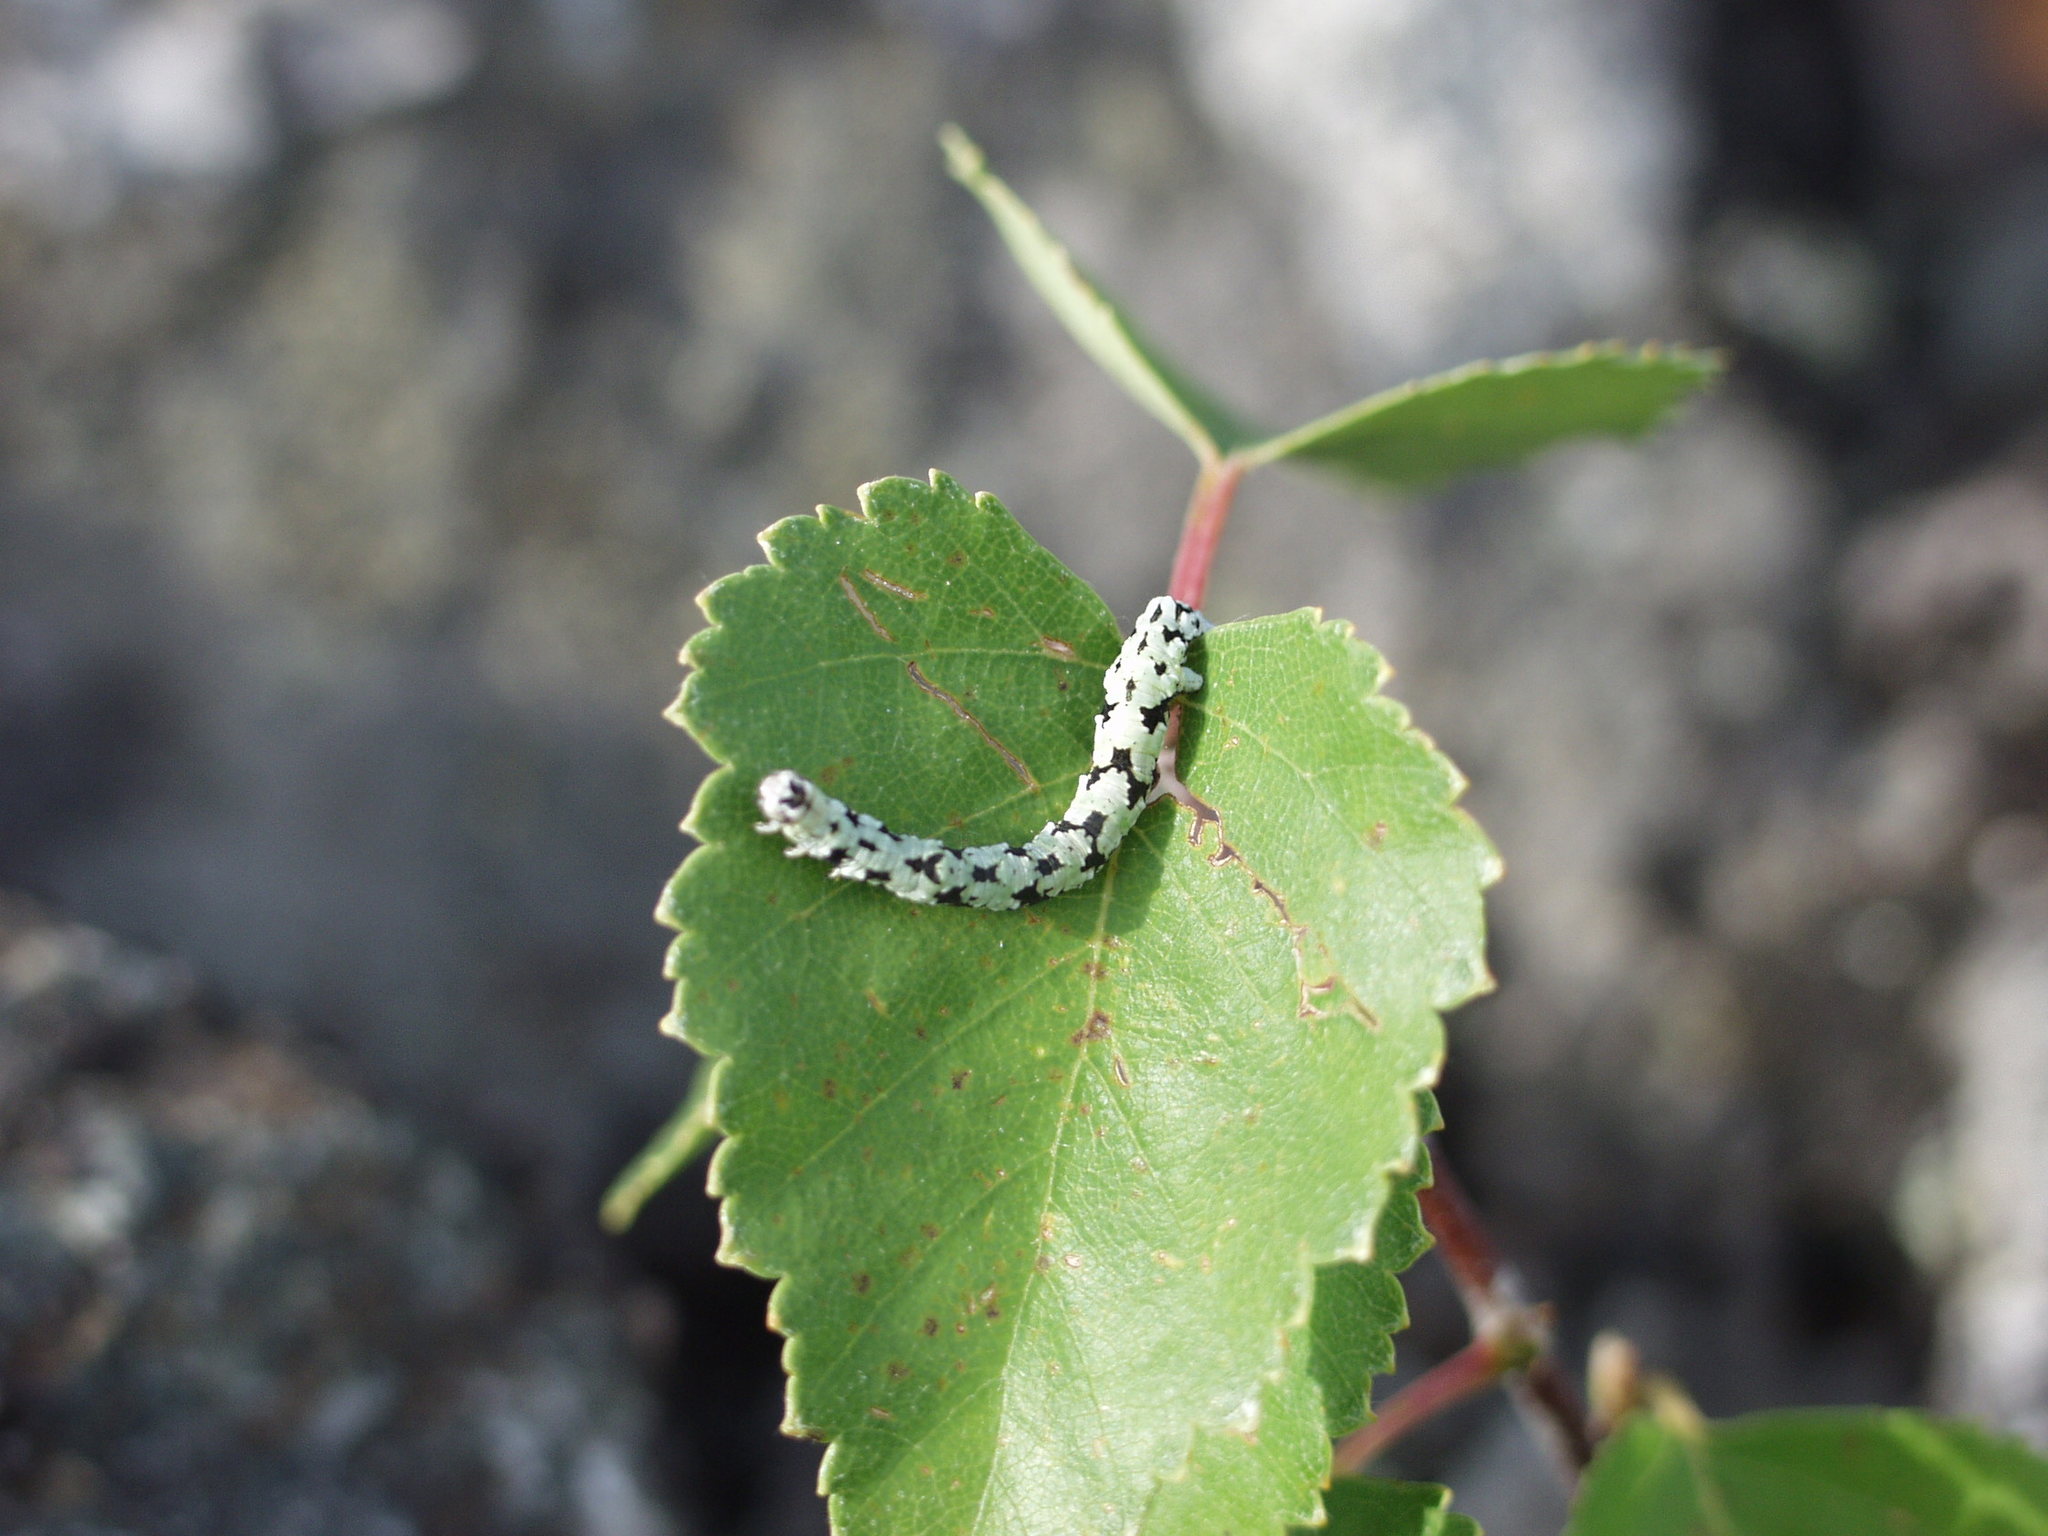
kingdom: Animalia
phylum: Arthropoda
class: Insecta
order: Lepidoptera
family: Geometridae
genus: Odontopera
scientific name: Odontopera bidentata
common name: Scalloped hazel
